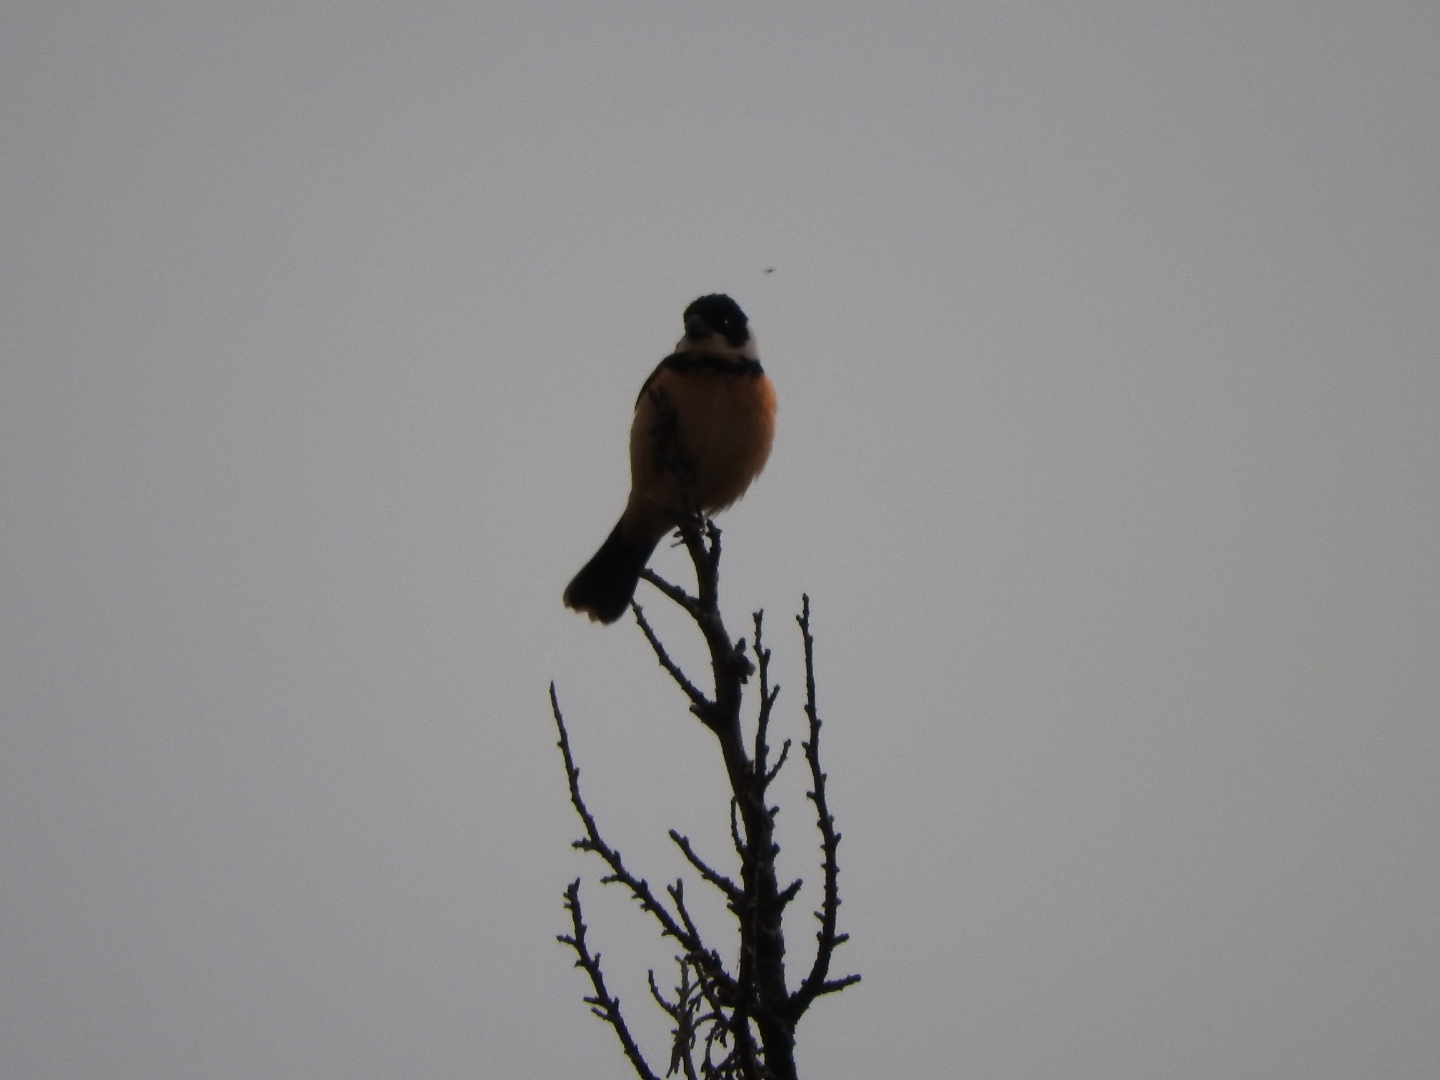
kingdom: Animalia
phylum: Chordata
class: Aves
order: Passeriformes
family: Thraupidae
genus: Sporophila
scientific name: Sporophila torqueola
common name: White-collared seedeater
